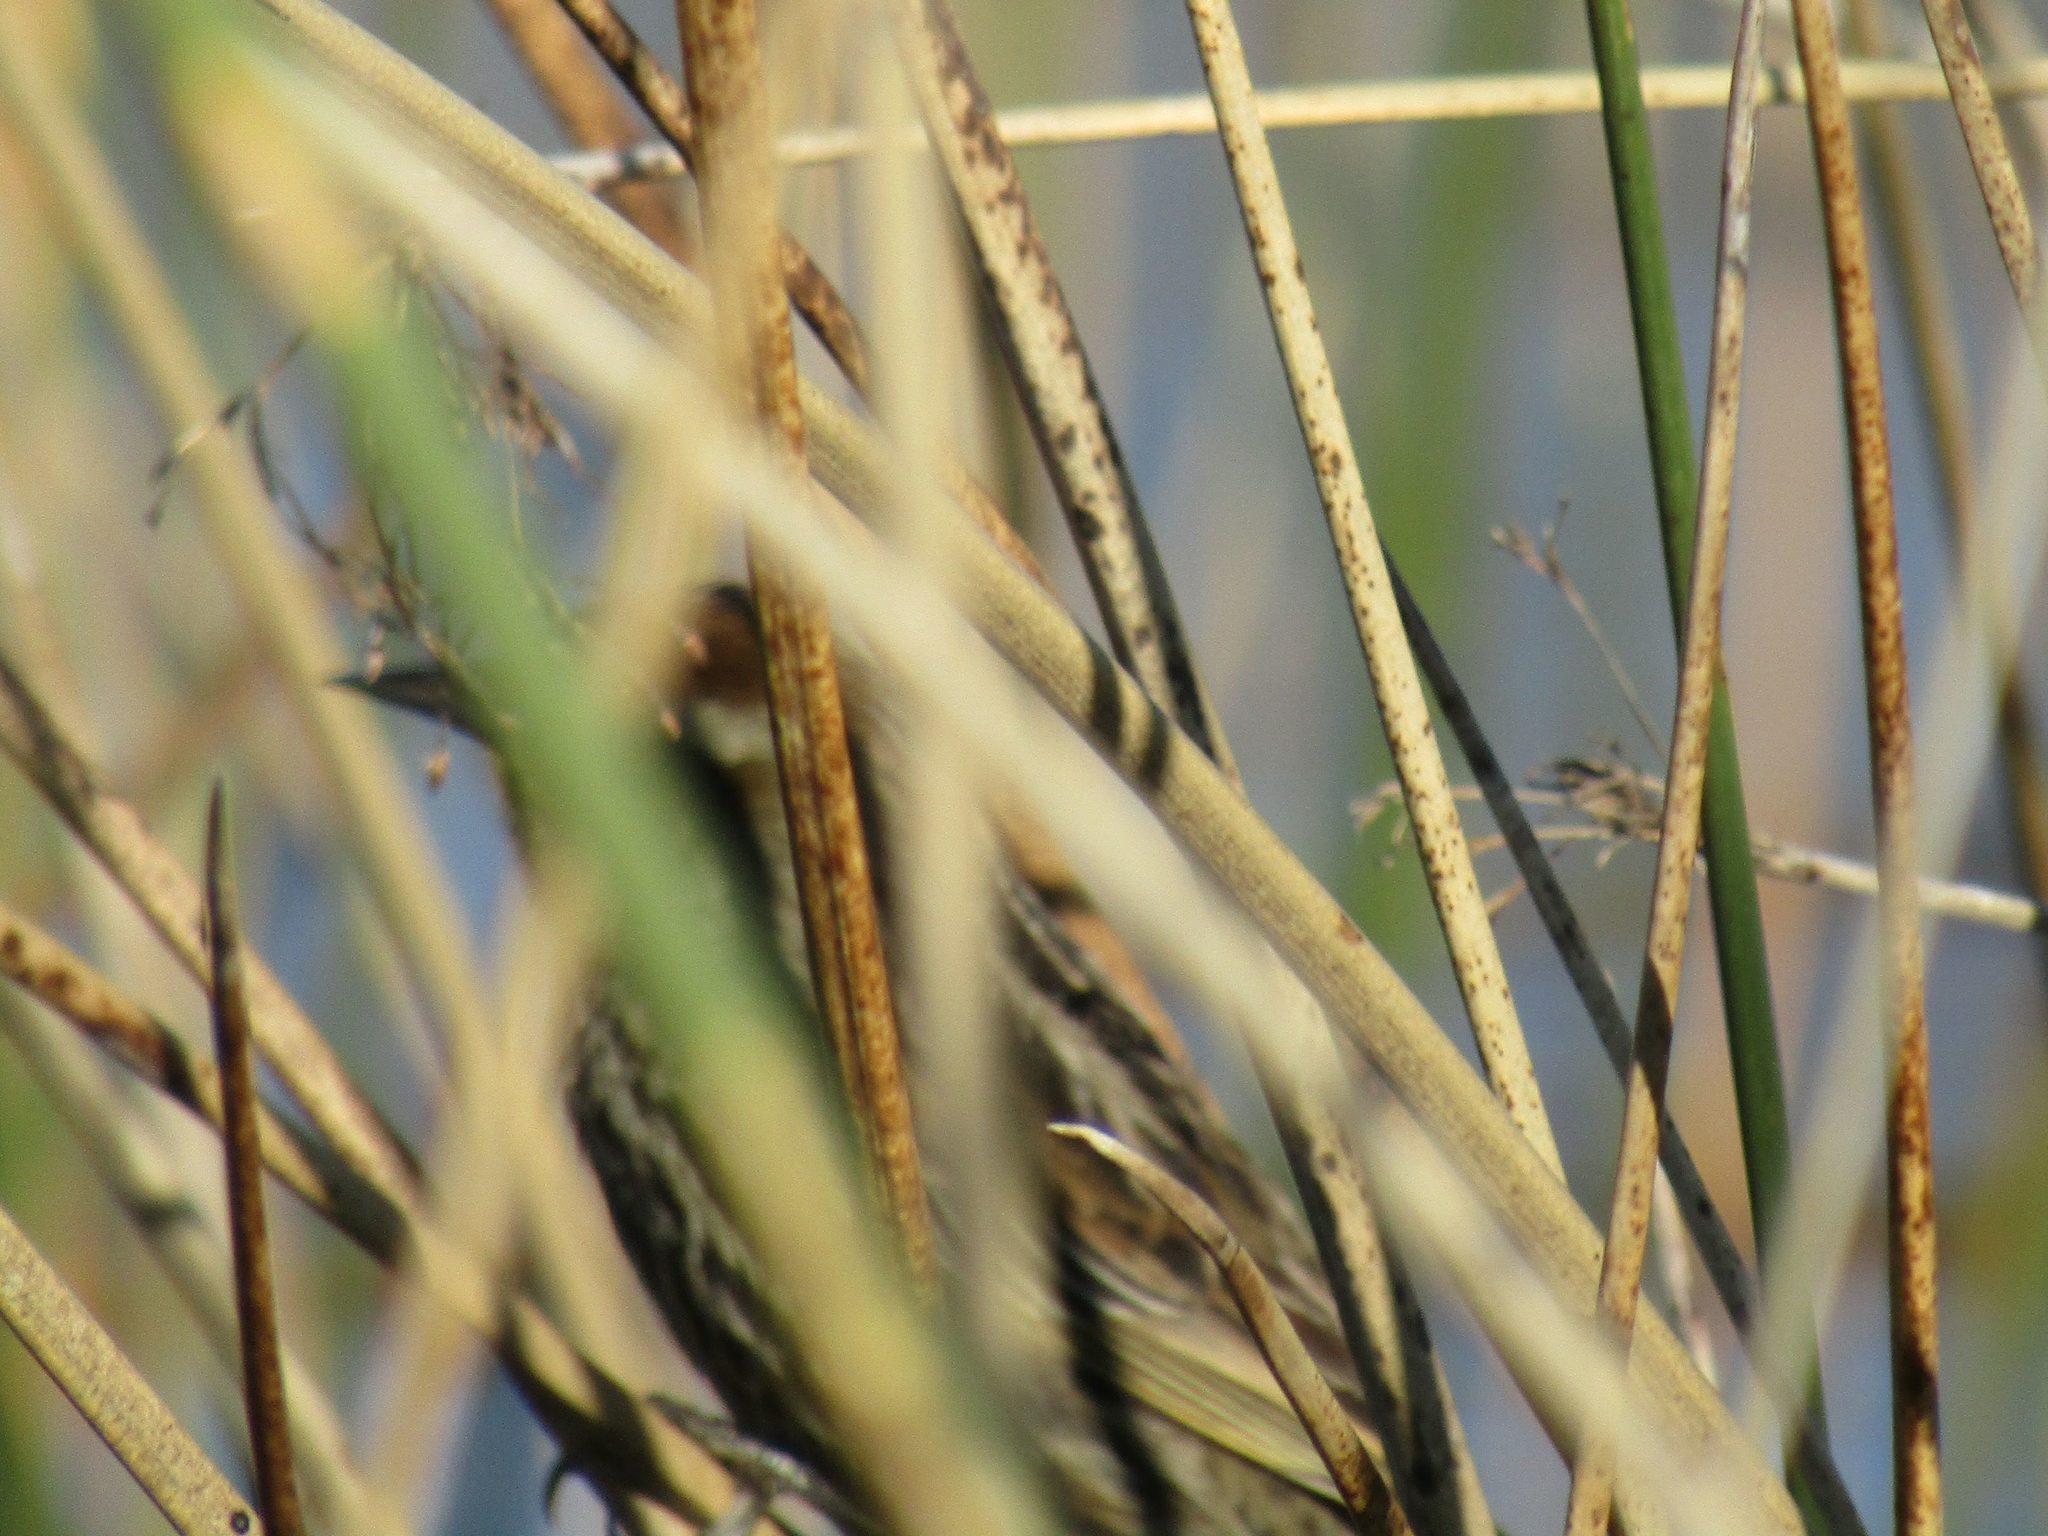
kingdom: Animalia
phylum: Chordata
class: Aves
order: Passeriformes
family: Icteridae
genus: Agelasticus
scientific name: Agelasticus thilius
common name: Yellow-winged blackbird
